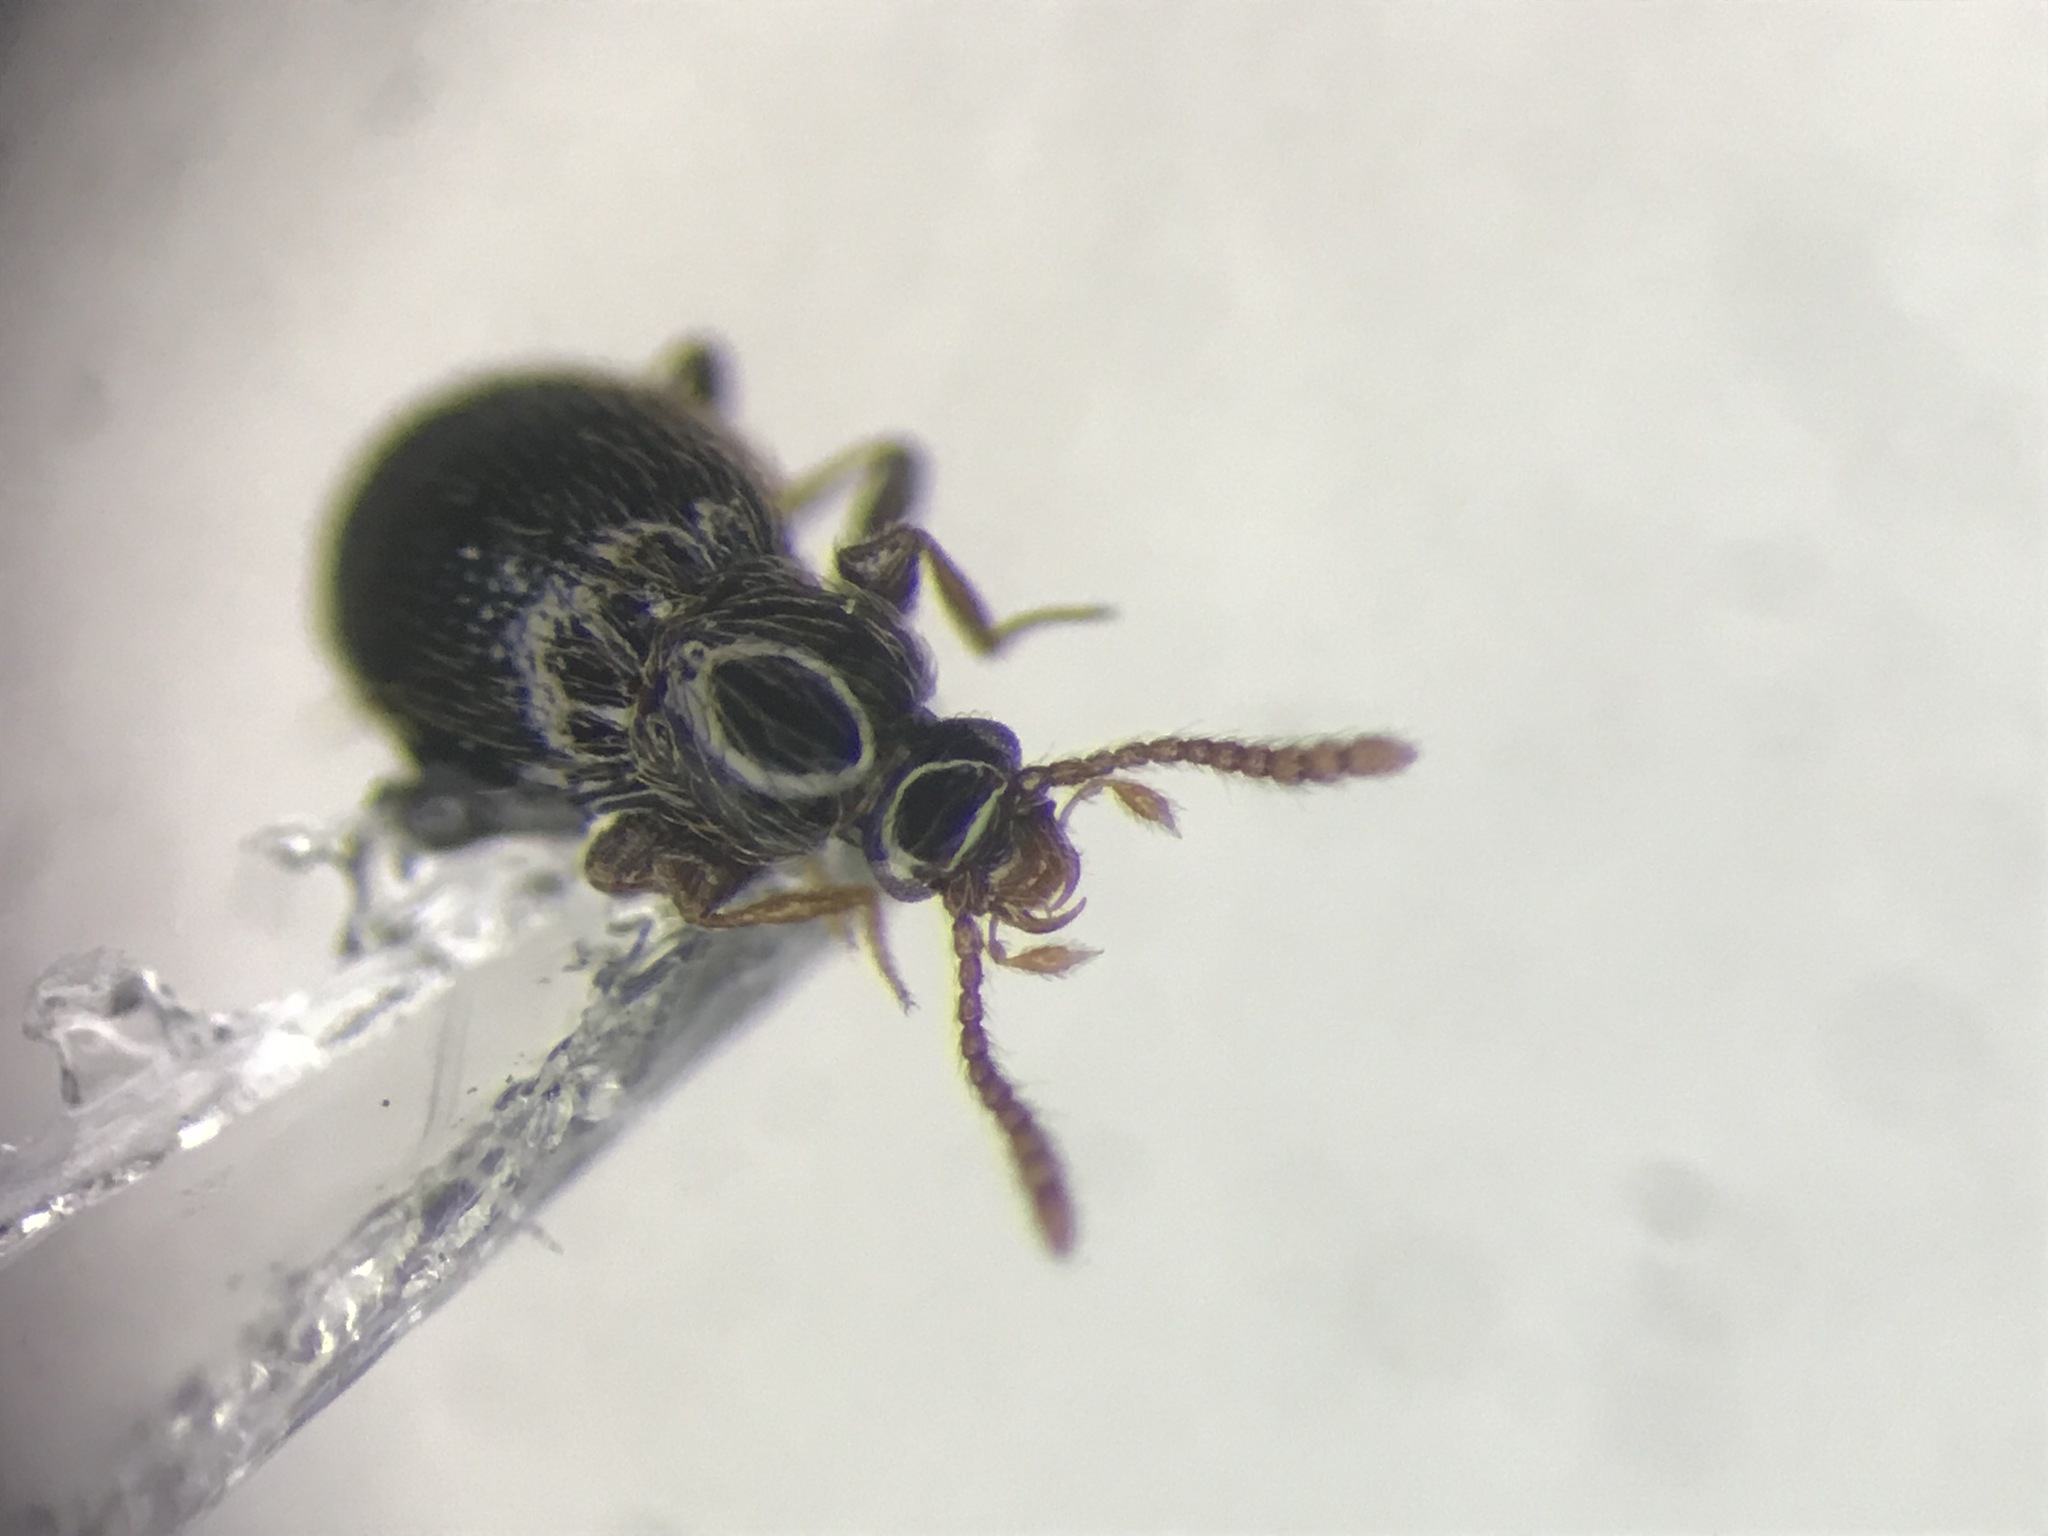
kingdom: Animalia
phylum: Arthropoda
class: Insecta
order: Coleoptera
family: Staphylinidae
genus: Stenichnus
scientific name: Stenichnus scutellaris
